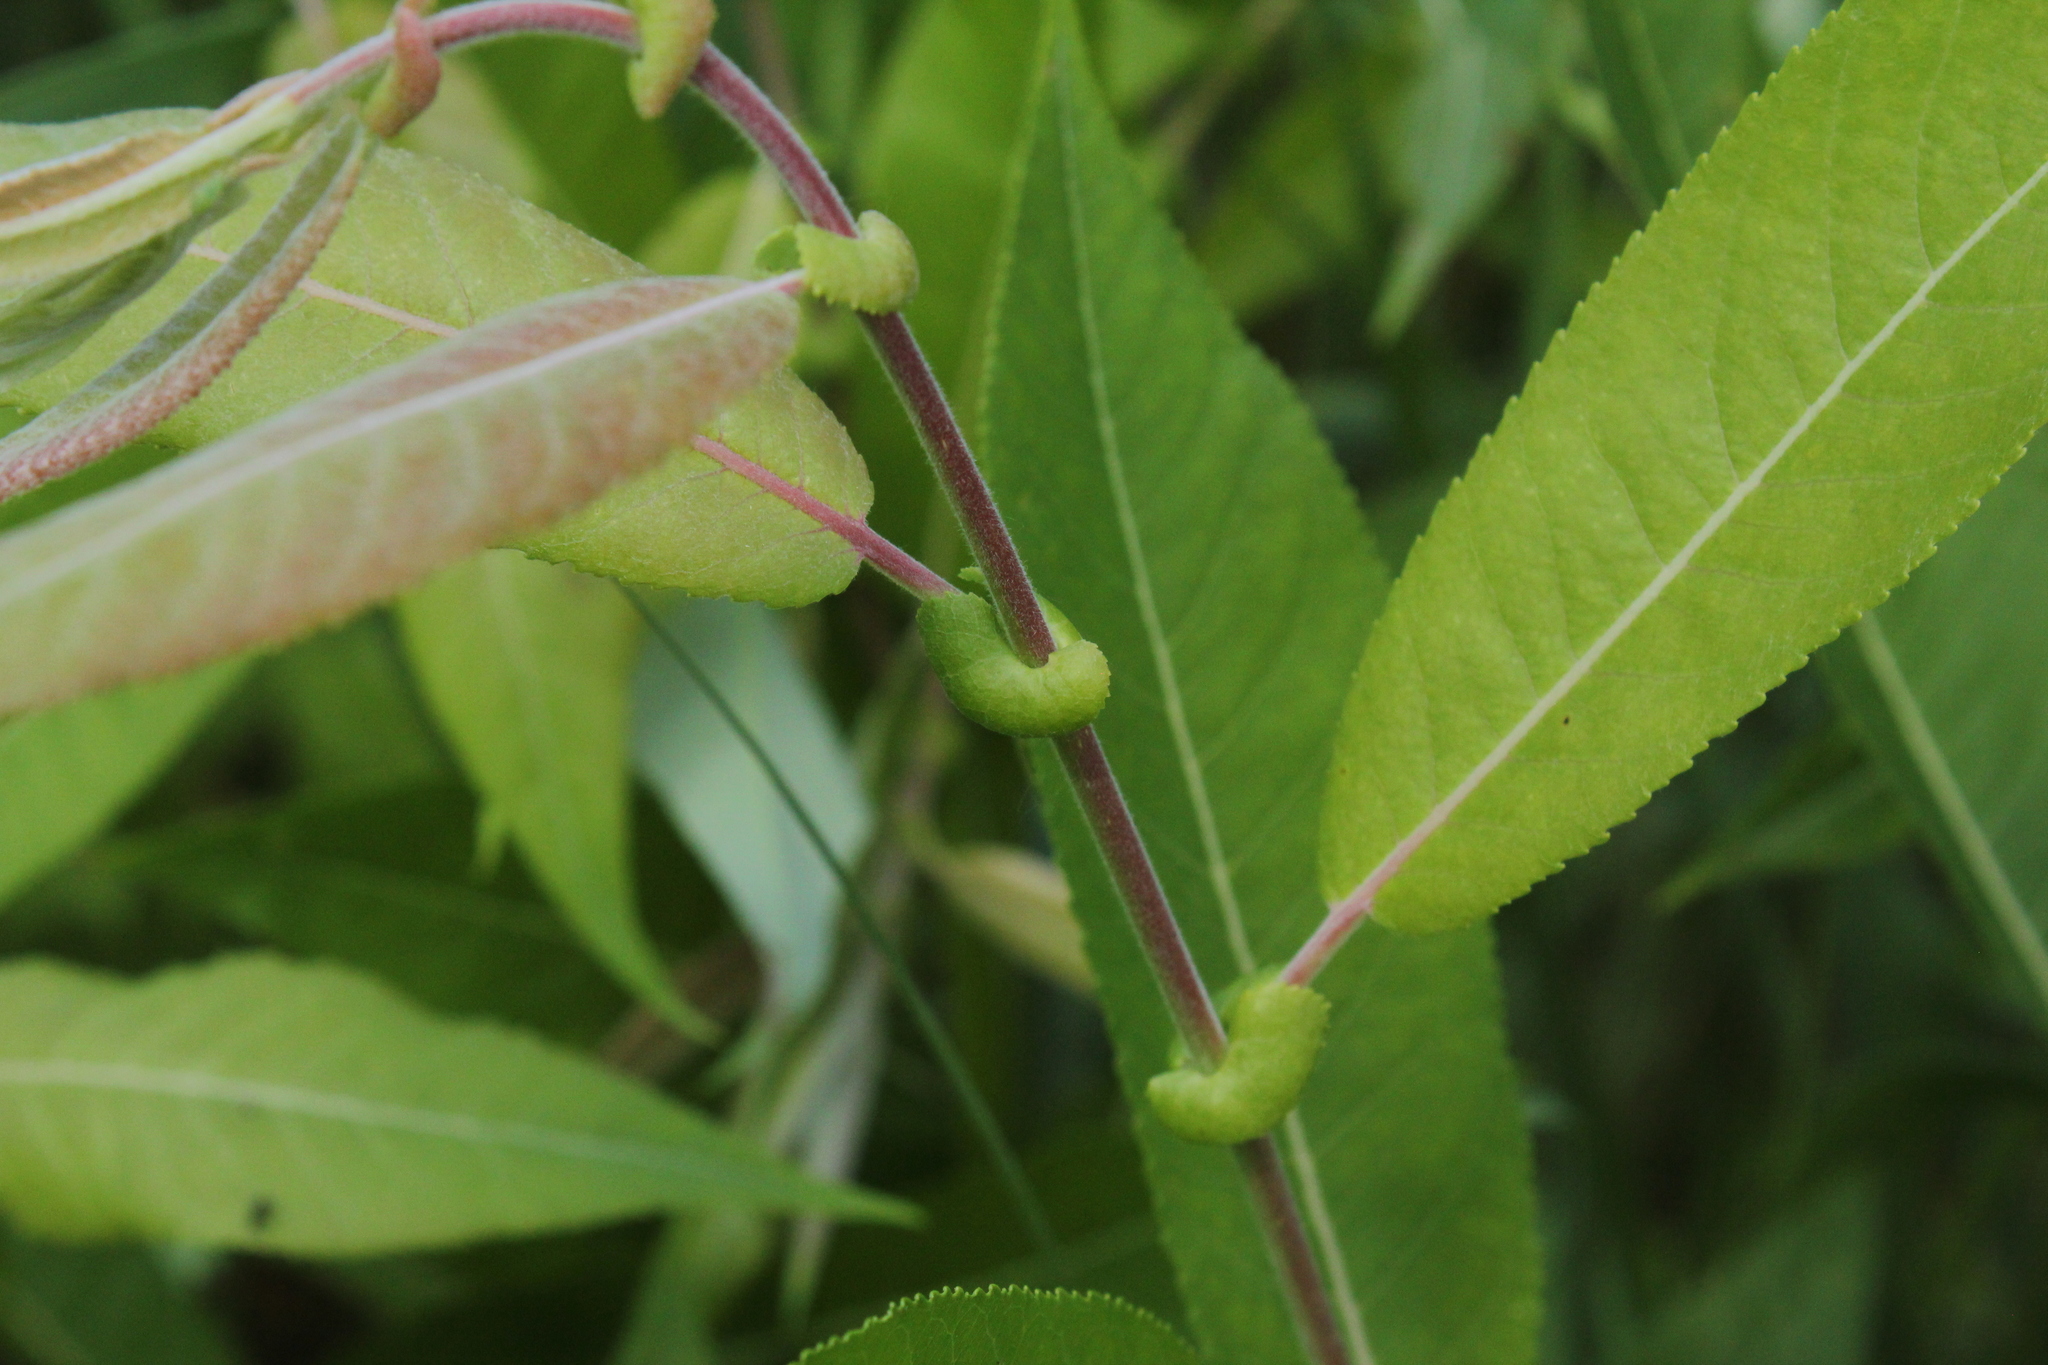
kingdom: Plantae
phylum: Tracheophyta
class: Magnoliopsida
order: Malpighiales
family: Salicaceae
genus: Salix
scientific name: Salix eriocephala
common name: Heart-leaved willow
